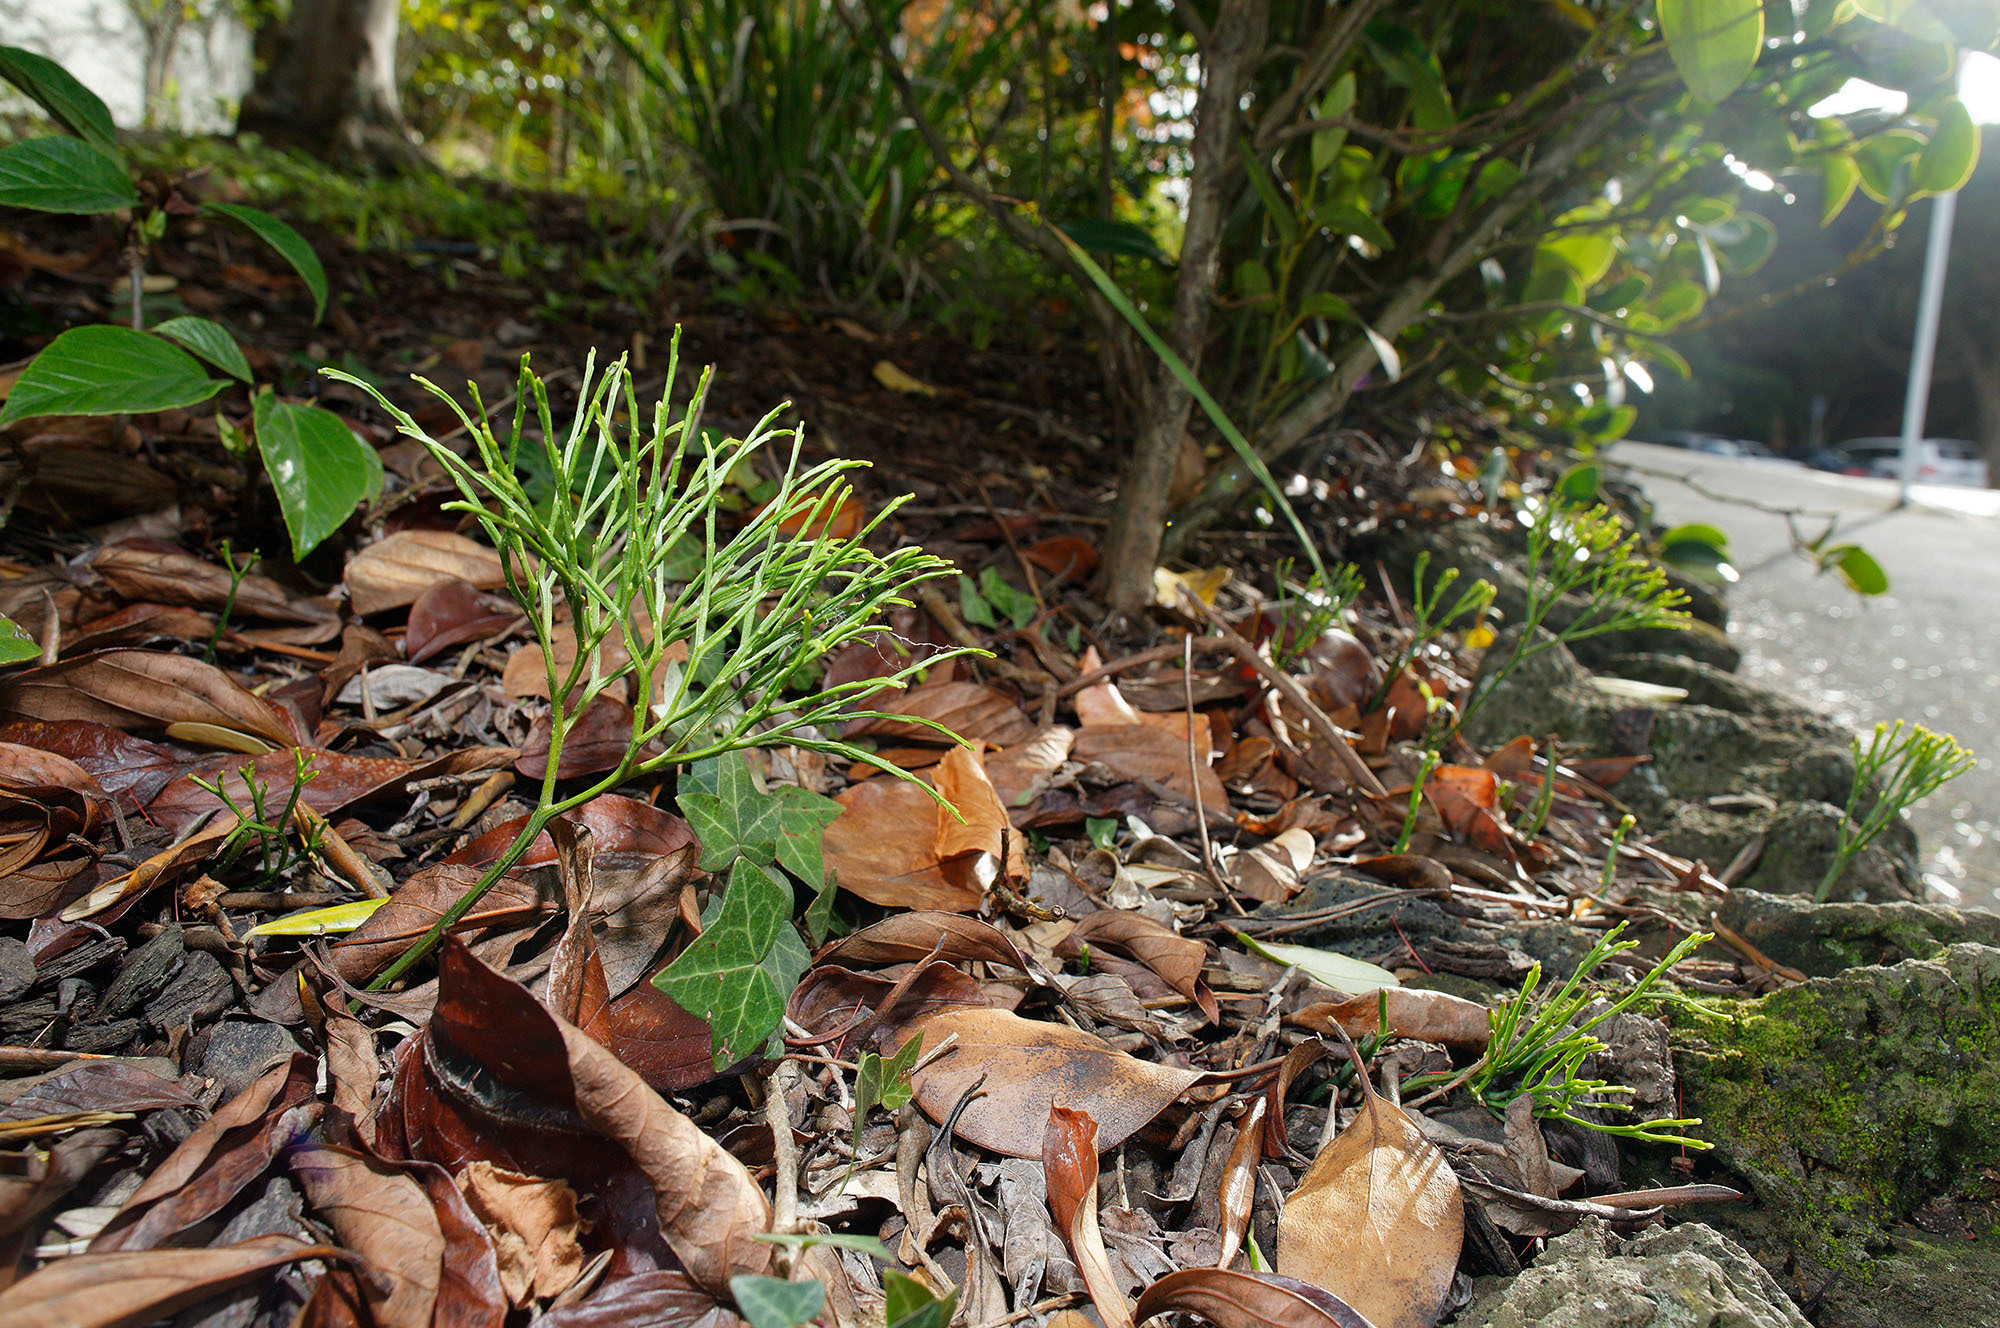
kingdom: Plantae
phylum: Tracheophyta
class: Polypodiopsida
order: Psilotales
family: Psilotaceae
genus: Psilotum
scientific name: Psilotum nudum
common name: Skeleton fork fern
